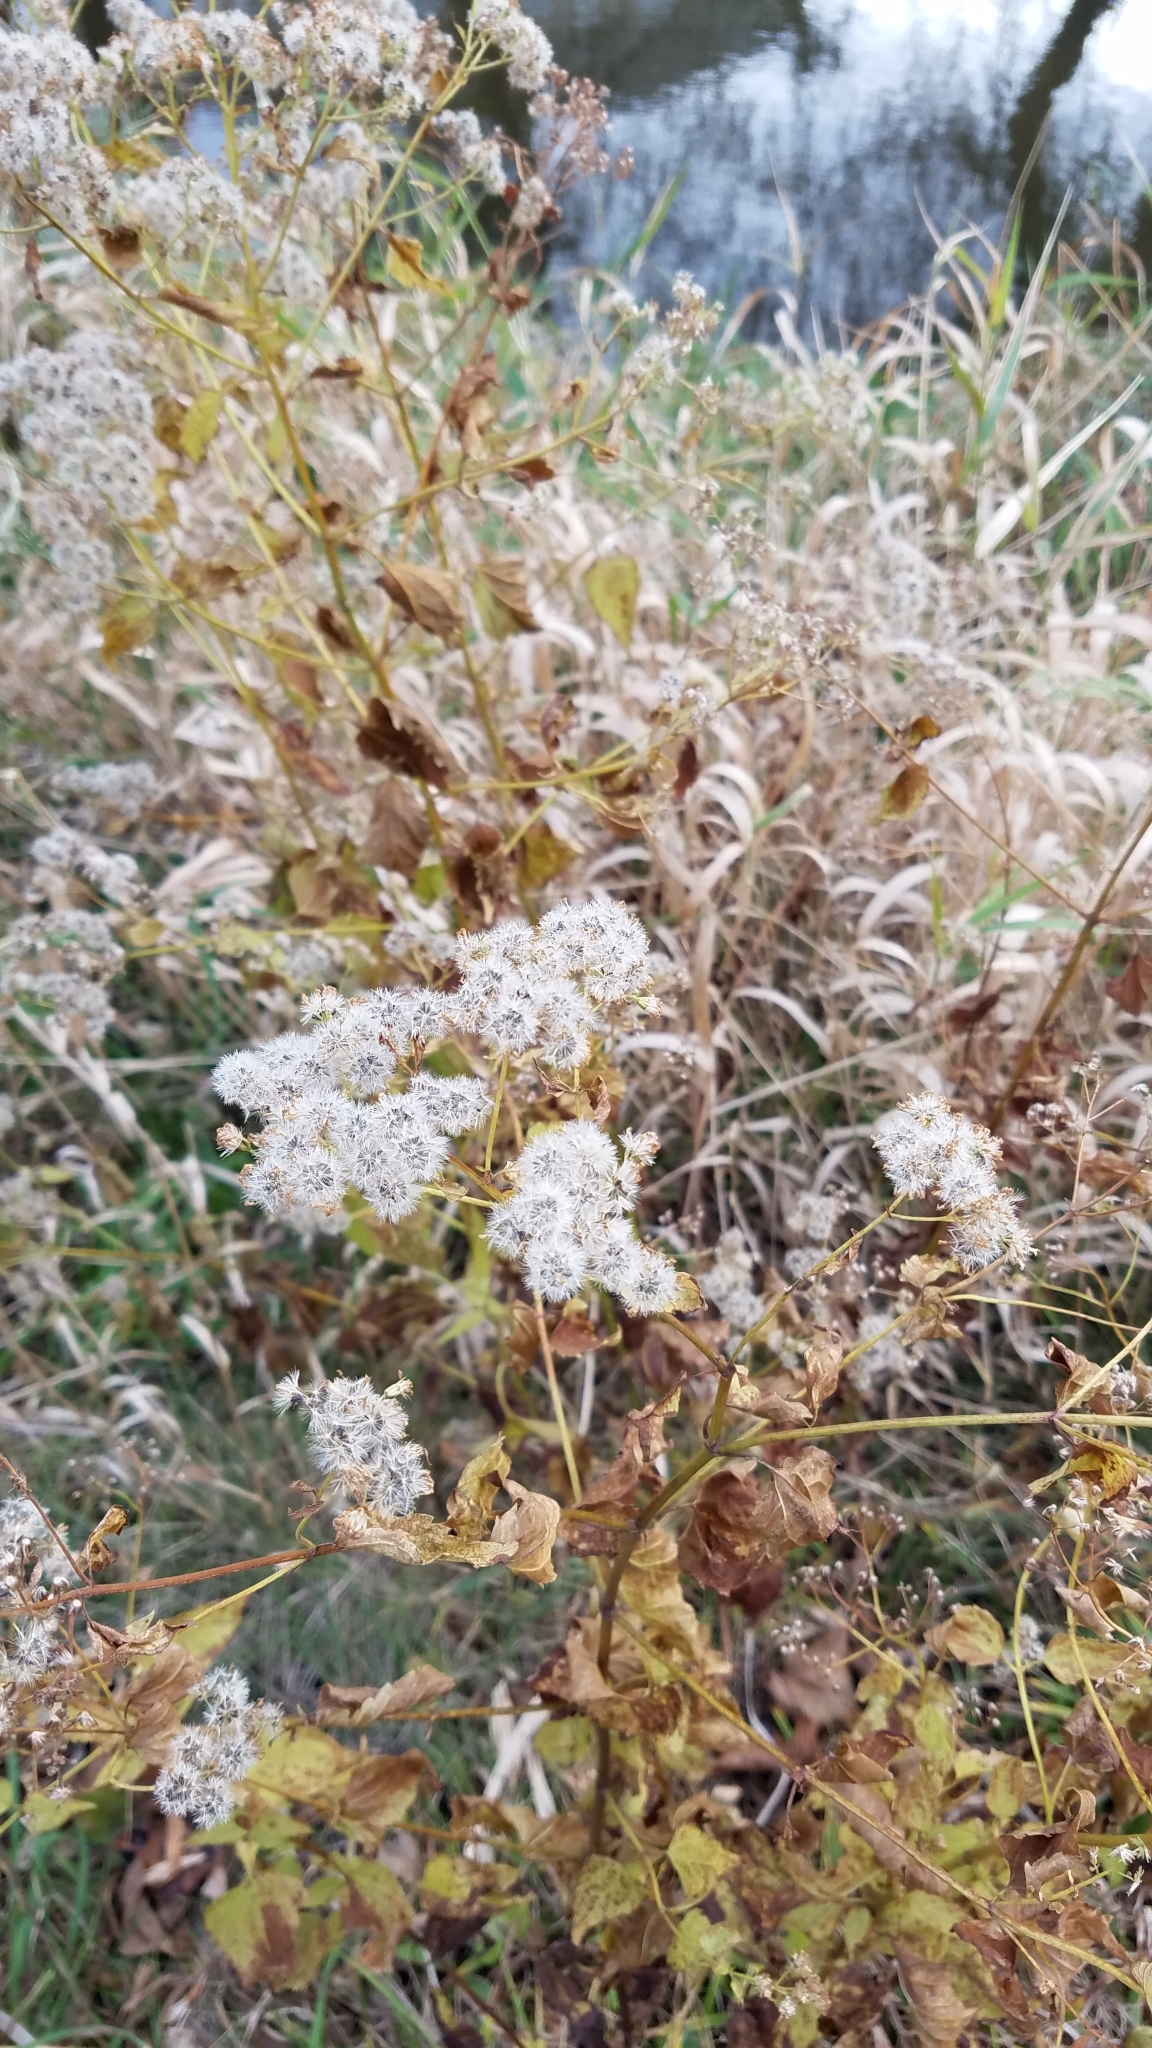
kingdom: Plantae
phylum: Tracheophyta
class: Magnoliopsida
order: Asterales
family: Asteraceae
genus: Ageratina
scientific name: Ageratina altissima
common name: White snakeroot
